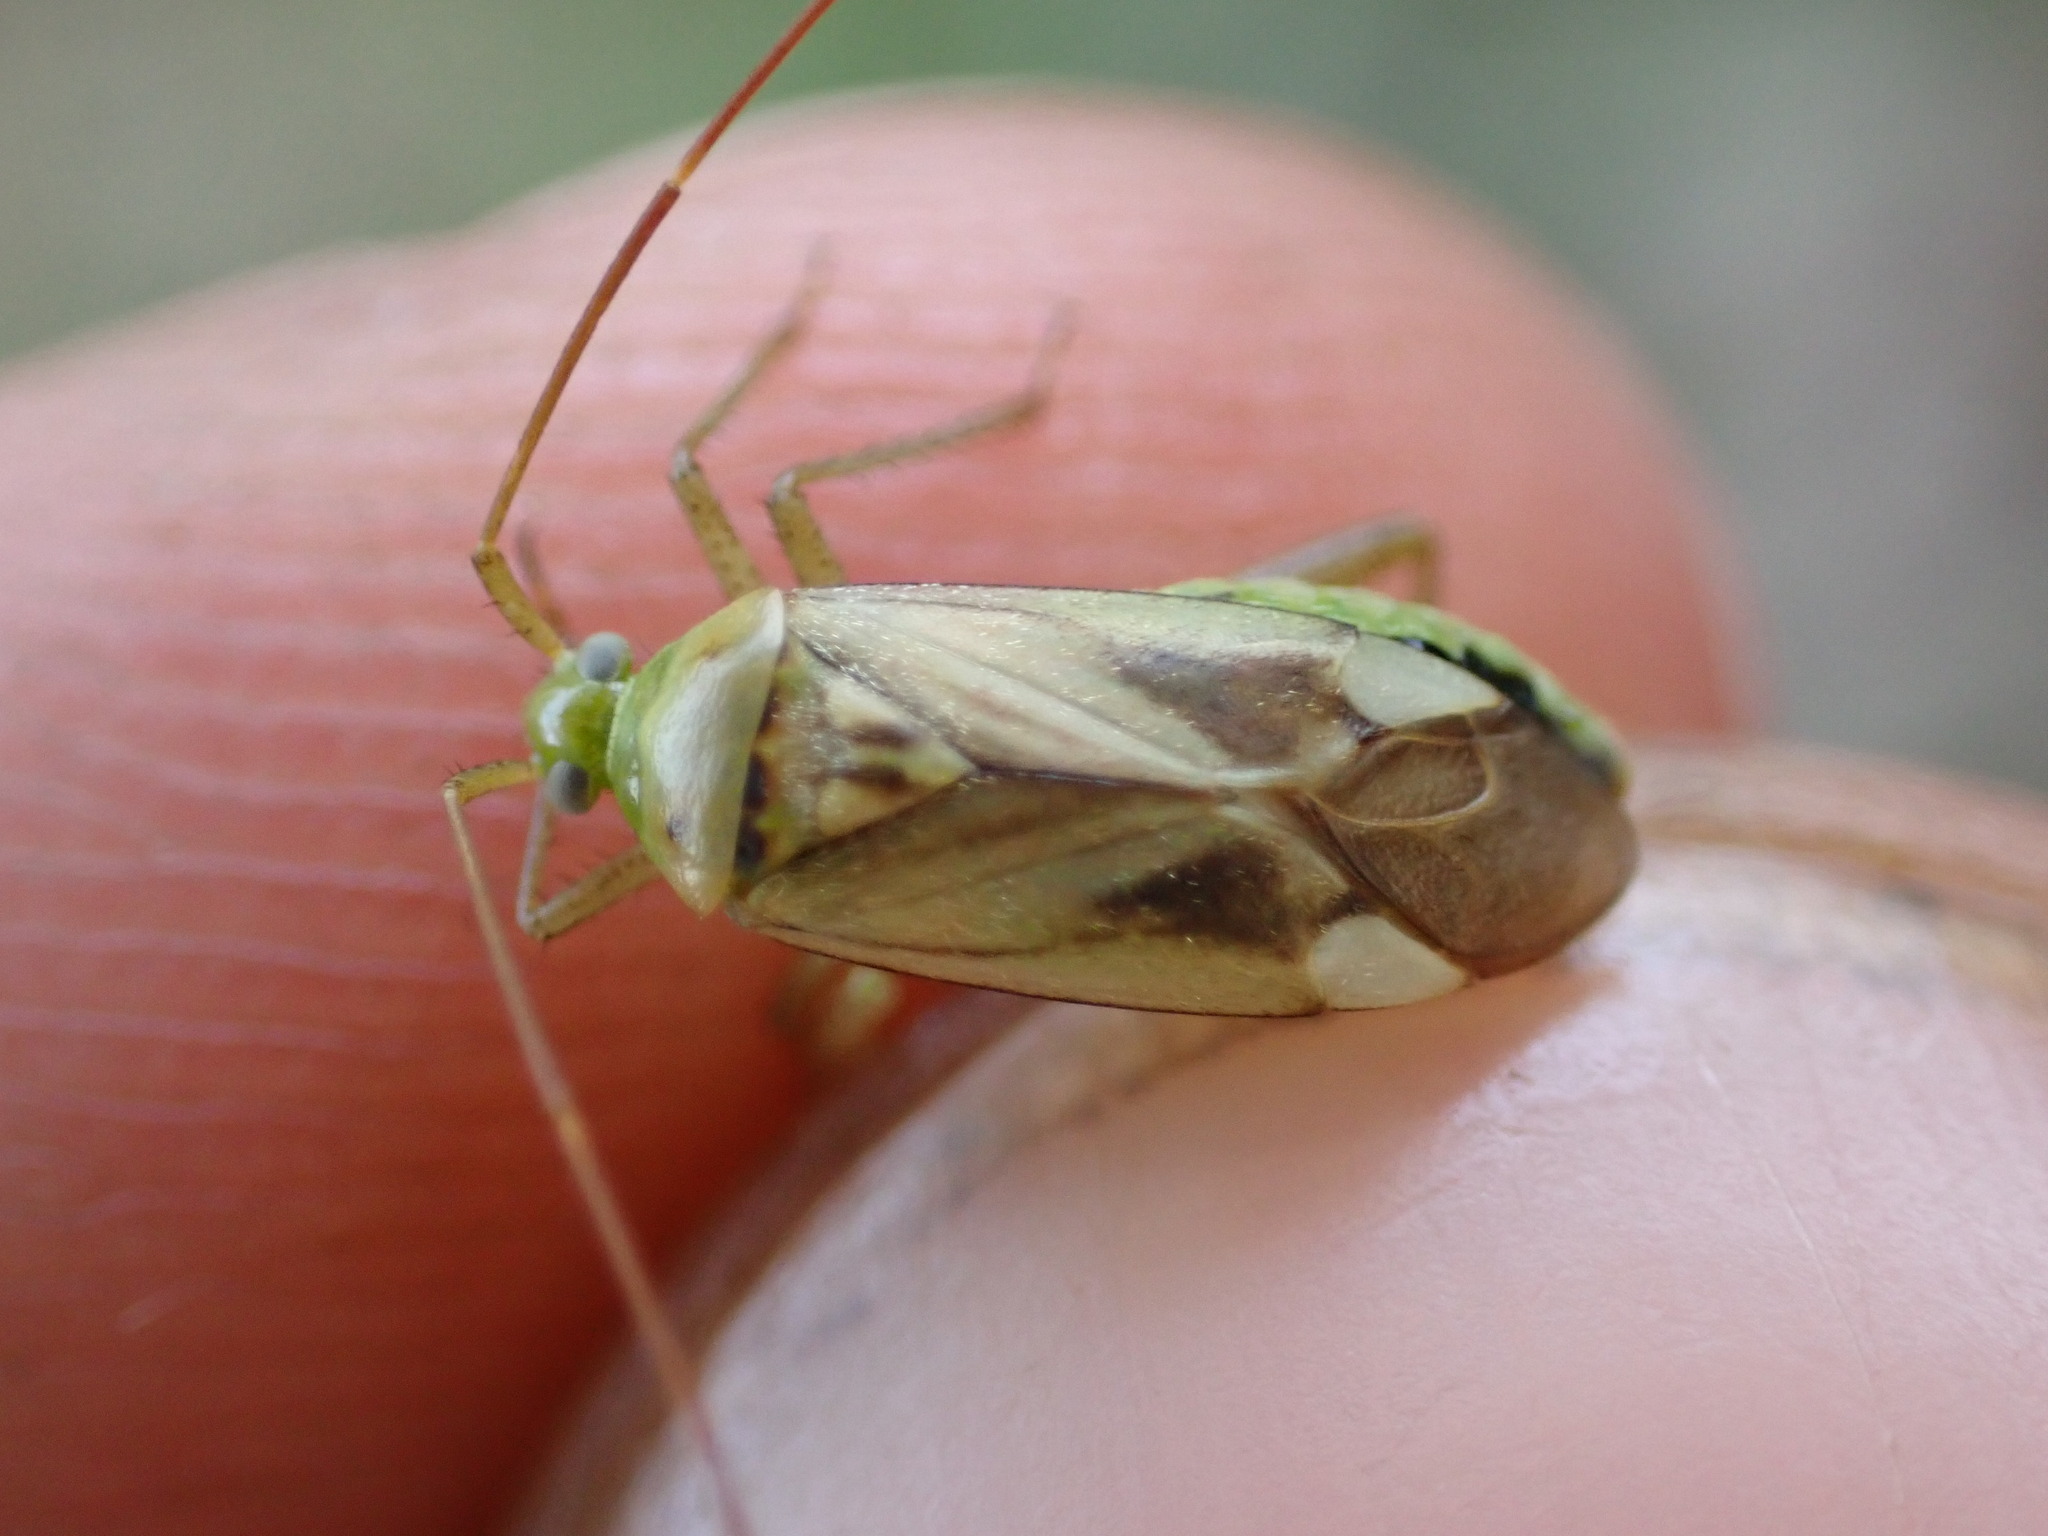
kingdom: Animalia
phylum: Arthropoda
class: Insecta
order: Hemiptera
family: Miridae
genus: Adelphocoris
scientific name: Adelphocoris lineolatus
